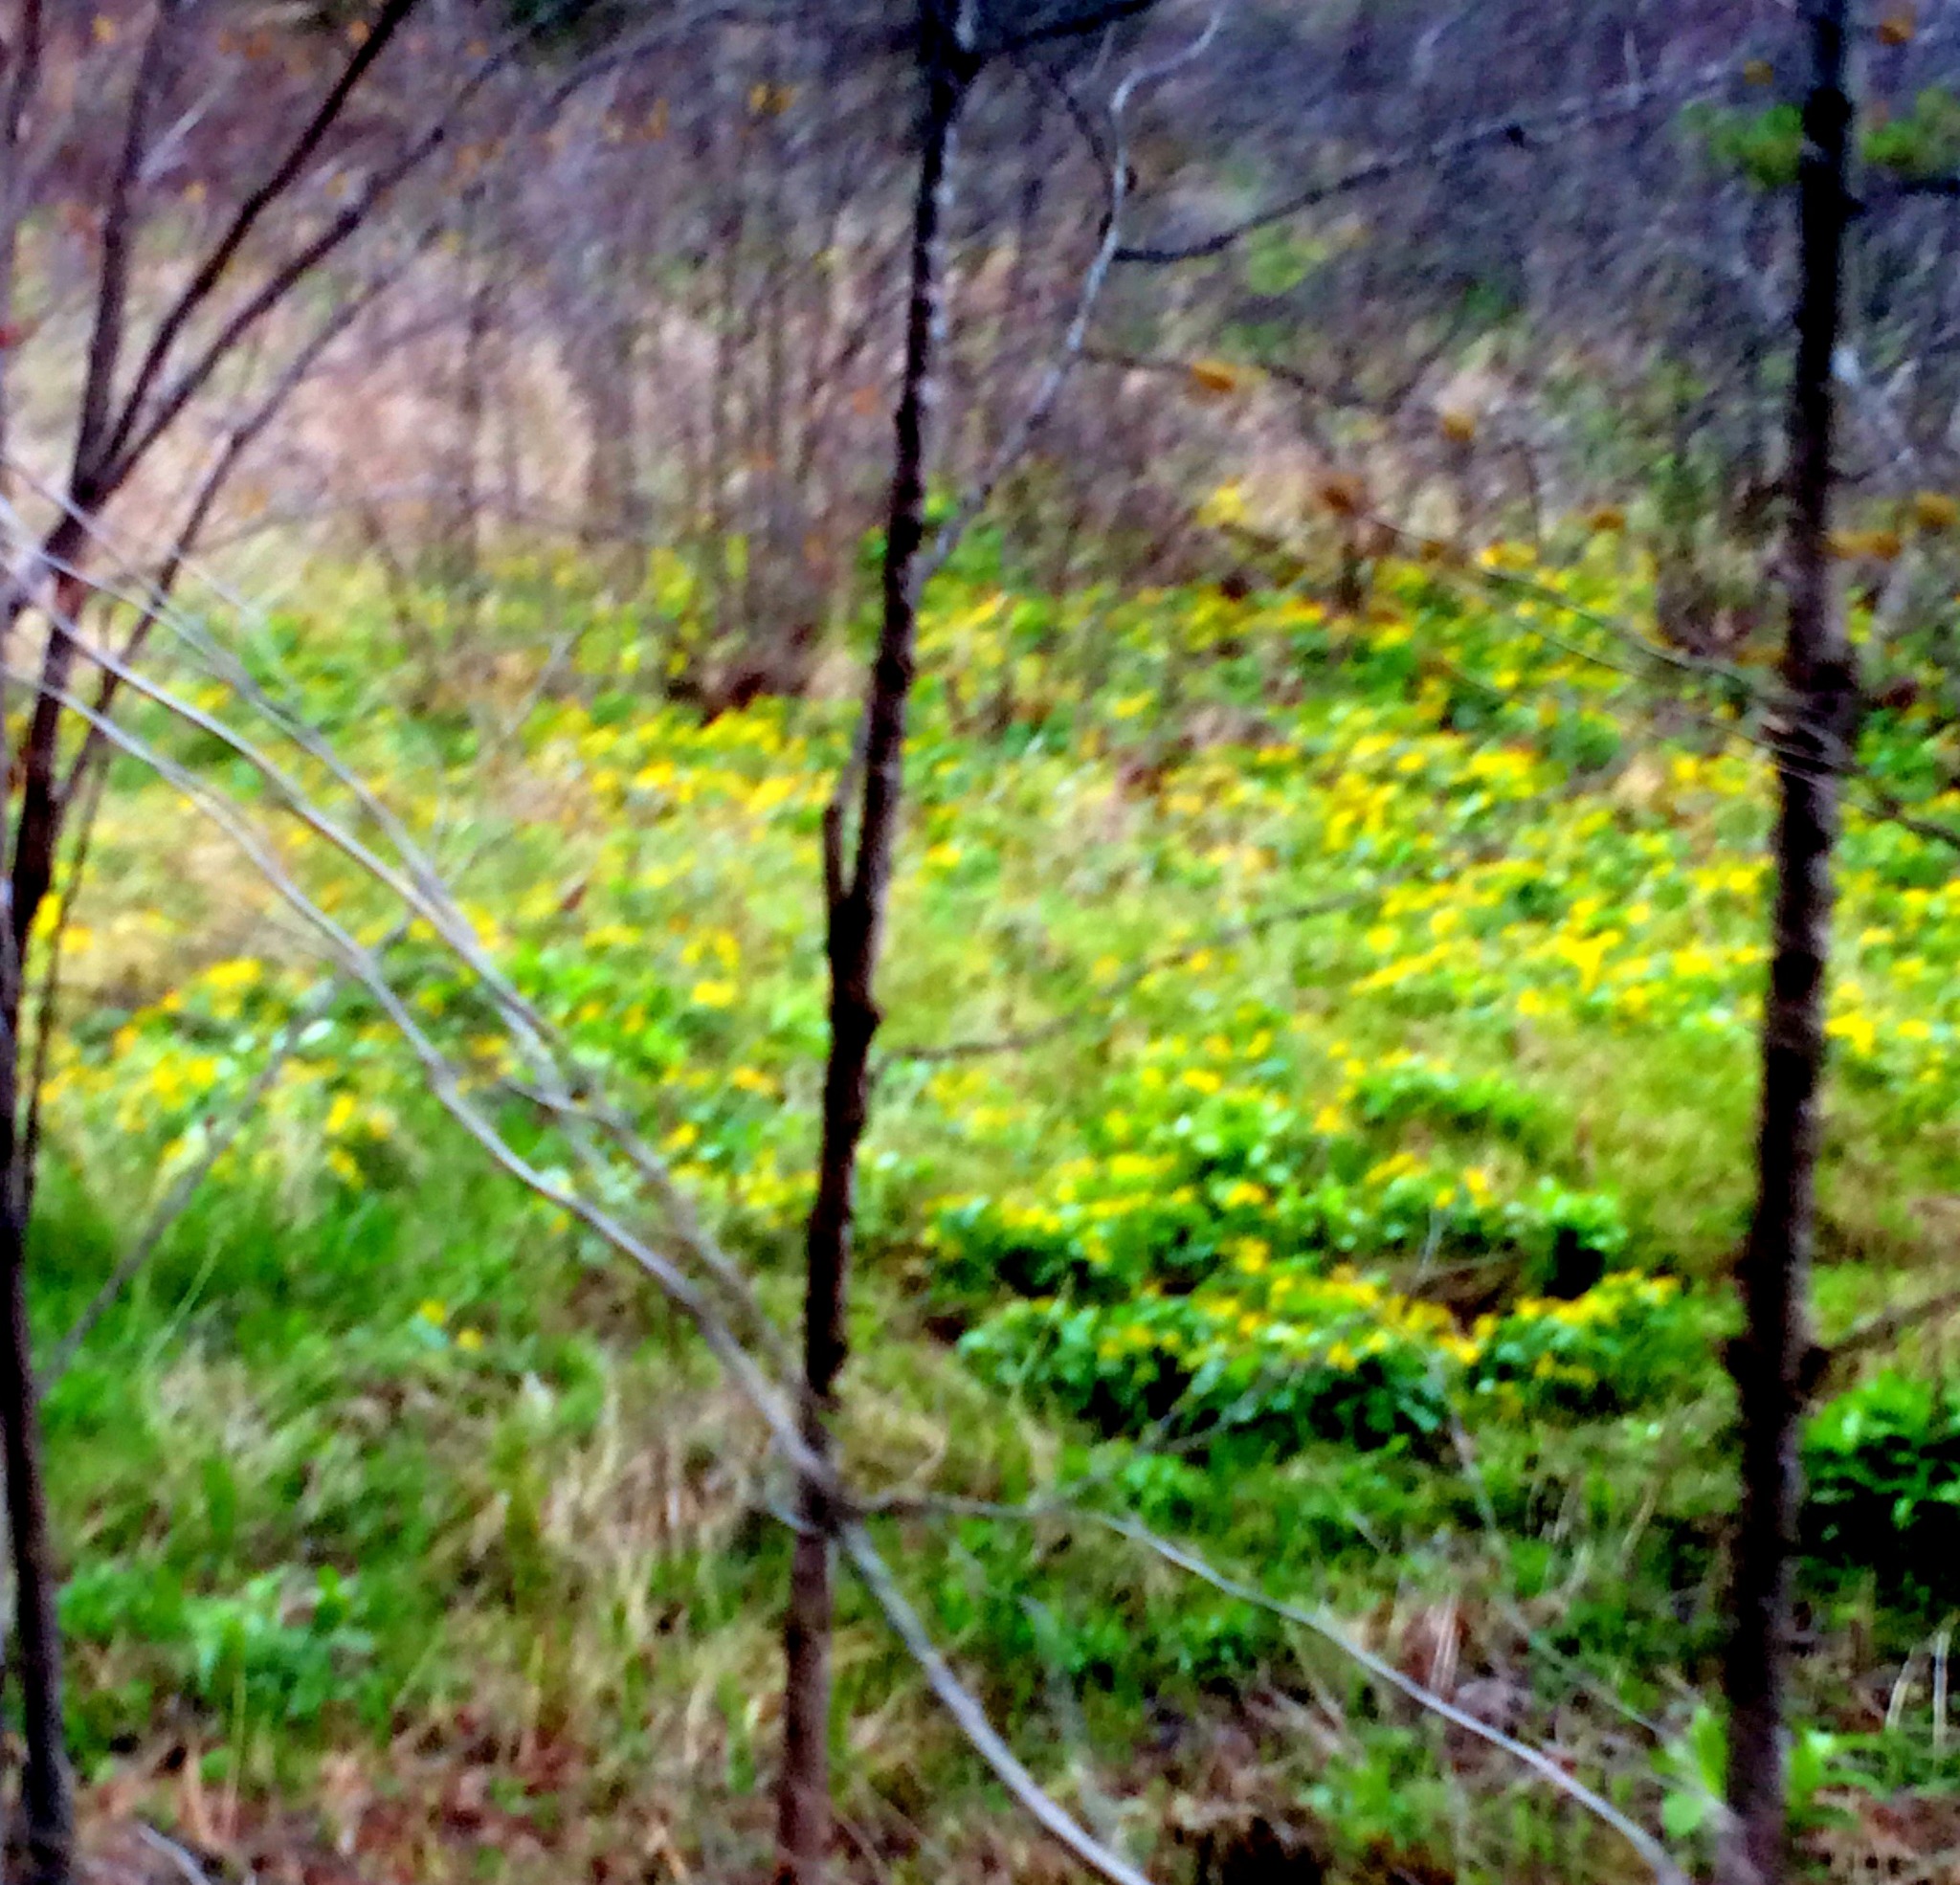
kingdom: Plantae
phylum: Tracheophyta
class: Magnoliopsida
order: Ranunculales
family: Ranunculaceae
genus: Caltha
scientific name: Caltha palustris
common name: Marsh marigold
